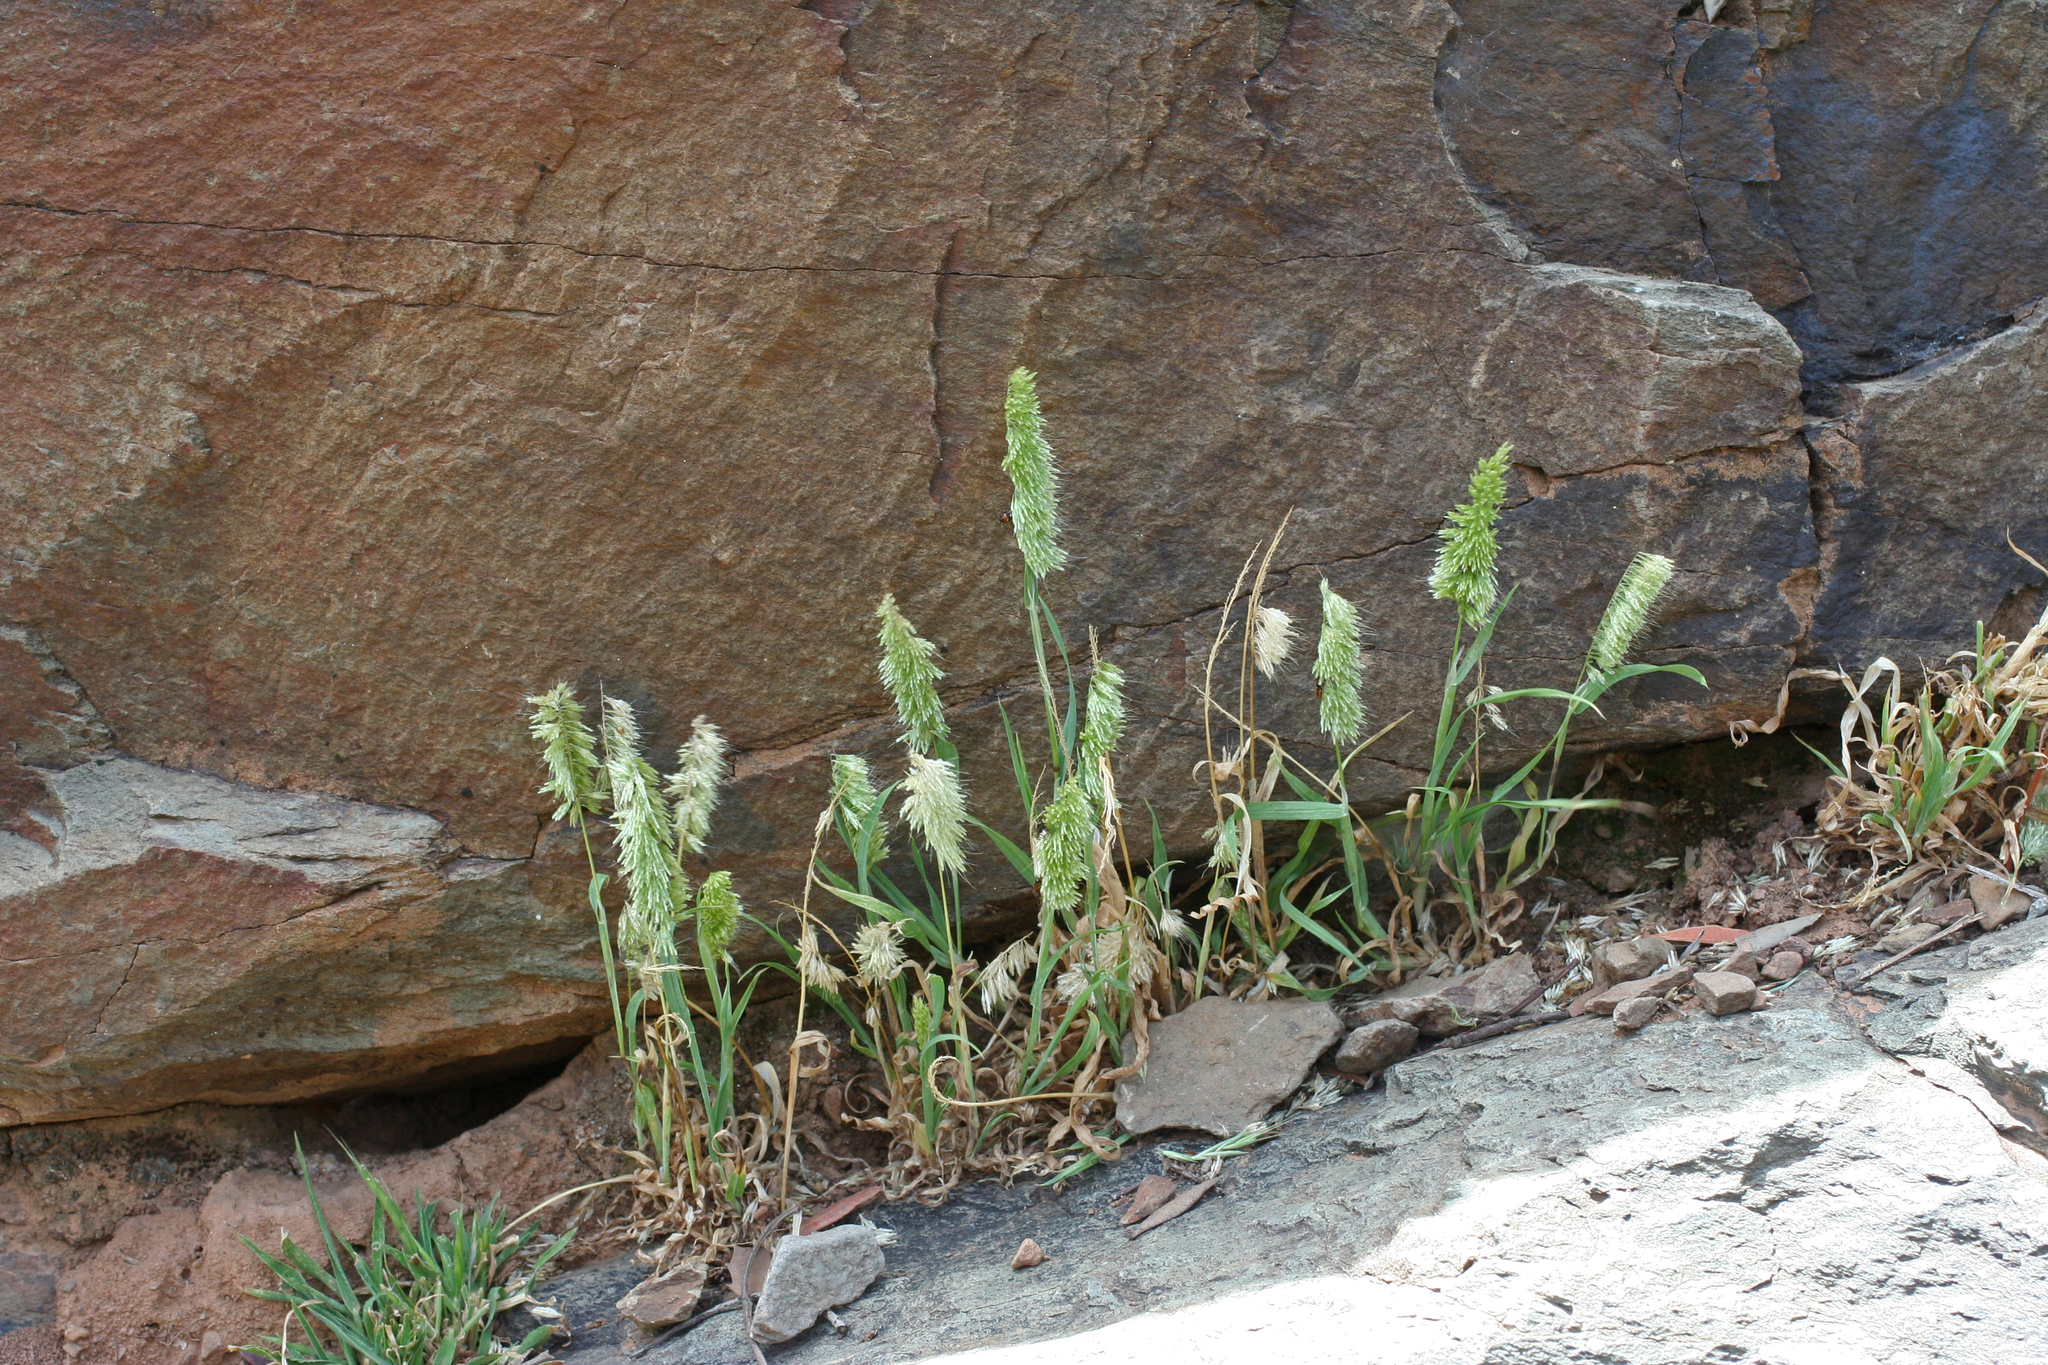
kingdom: Plantae
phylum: Tracheophyta
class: Liliopsida
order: Poales
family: Poaceae
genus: Lamarckia
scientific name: Lamarckia aurea
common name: Golden dog's-tail
